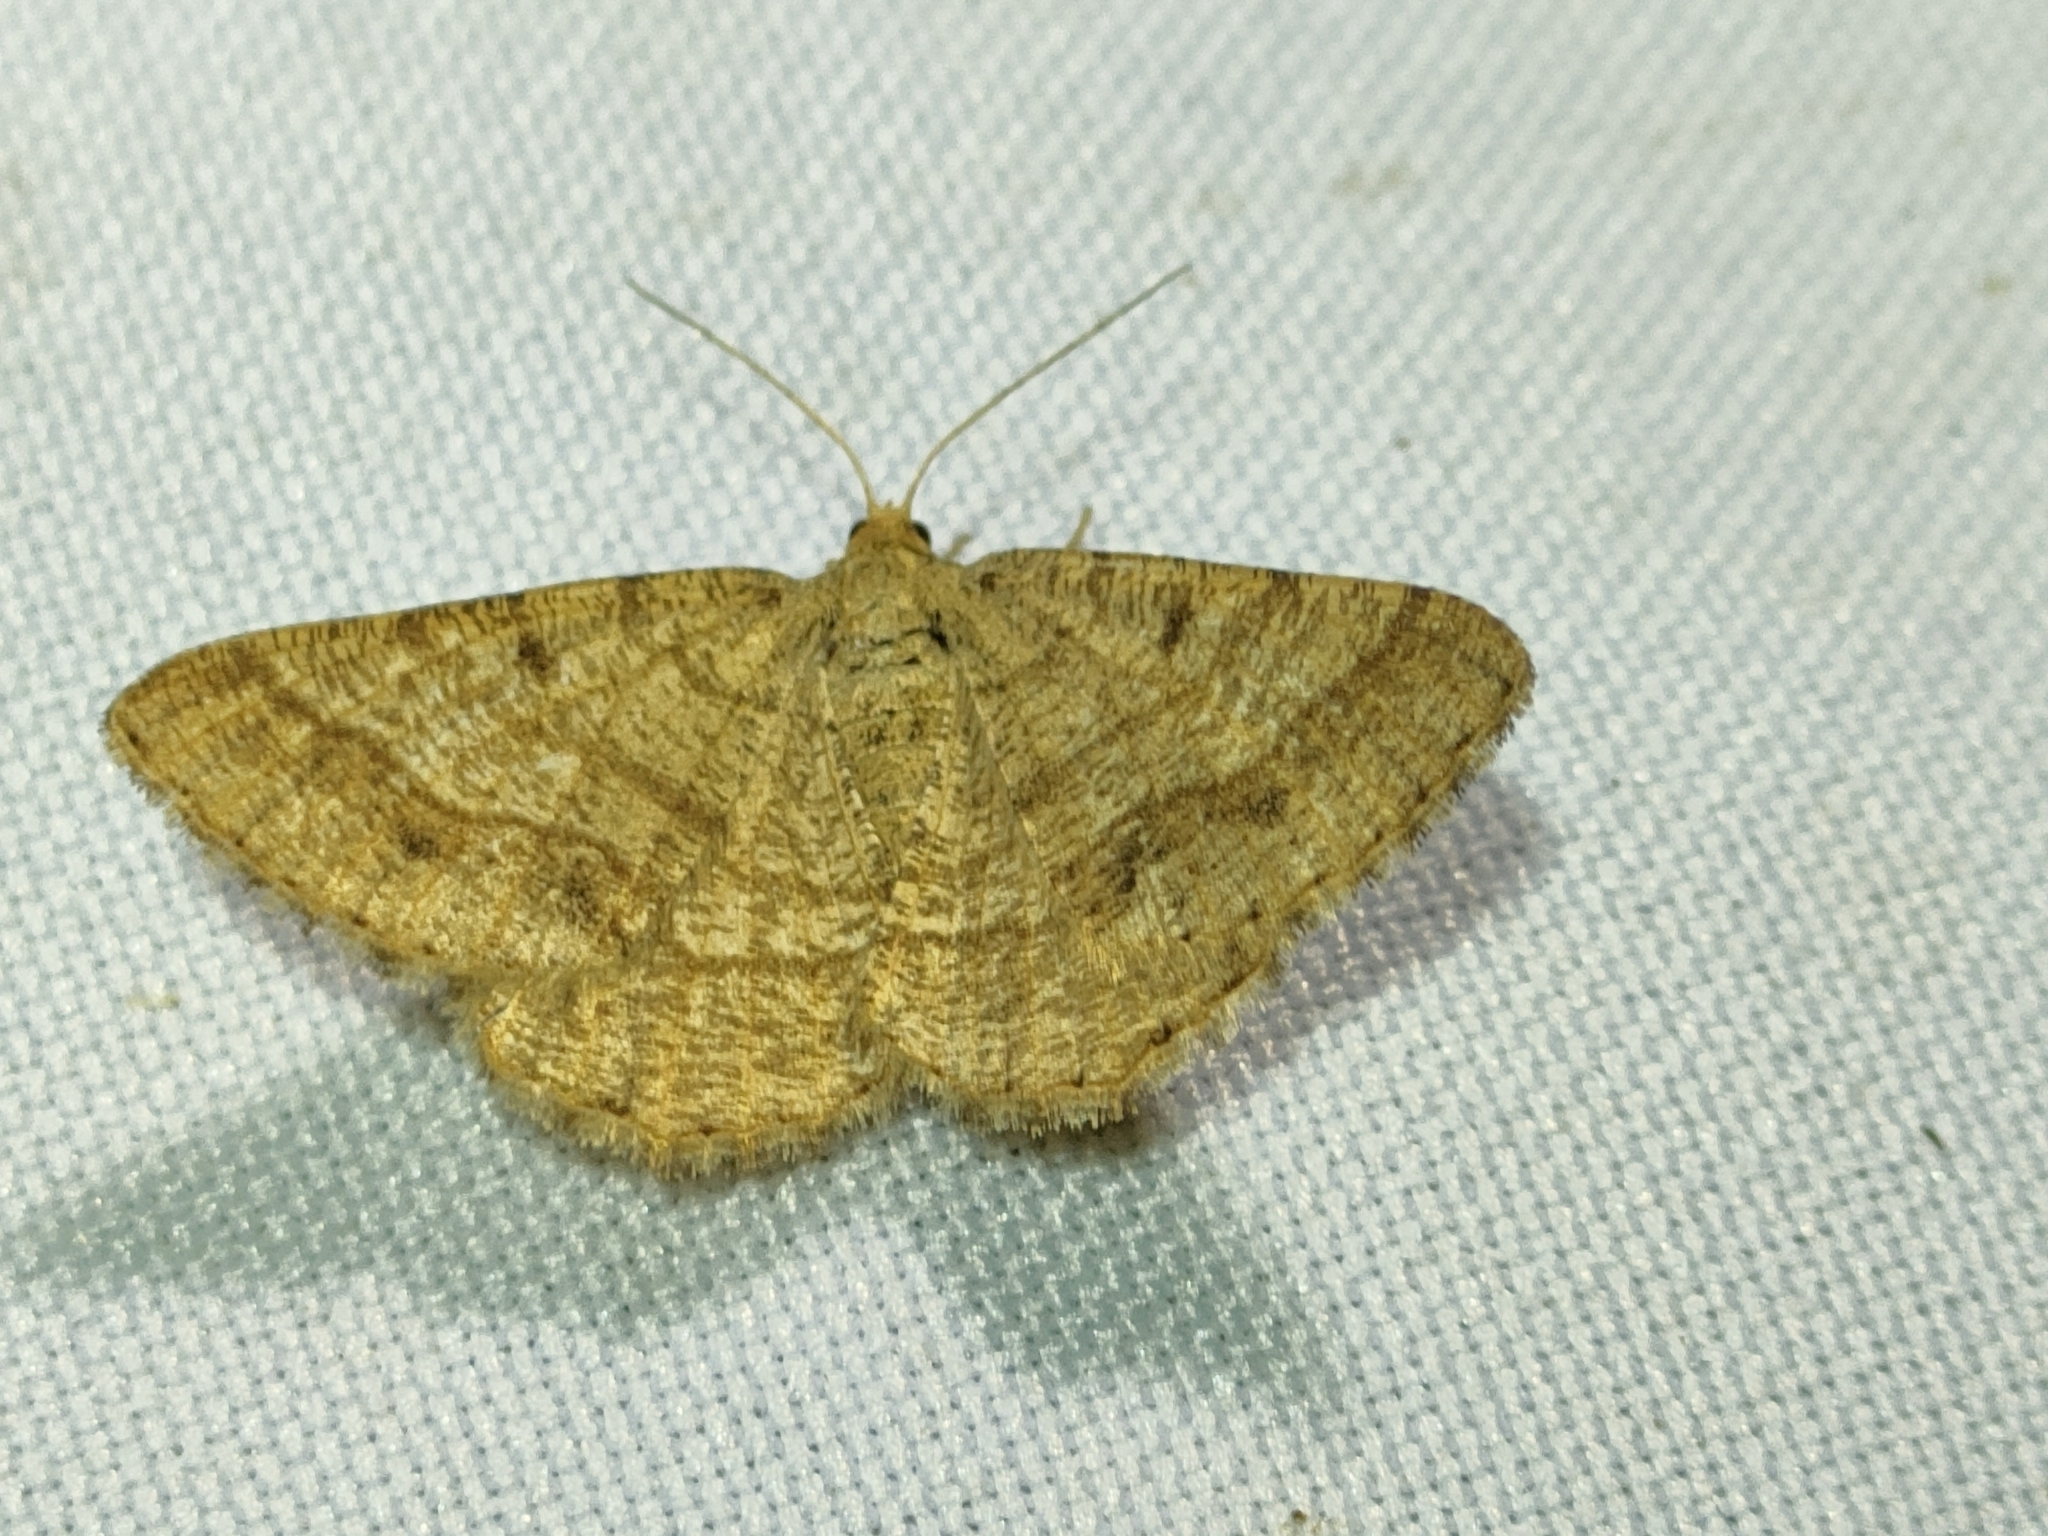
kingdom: Animalia
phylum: Arthropoda
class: Insecta
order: Lepidoptera
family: Geometridae
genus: Tephrina
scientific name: Tephrina murinaria
